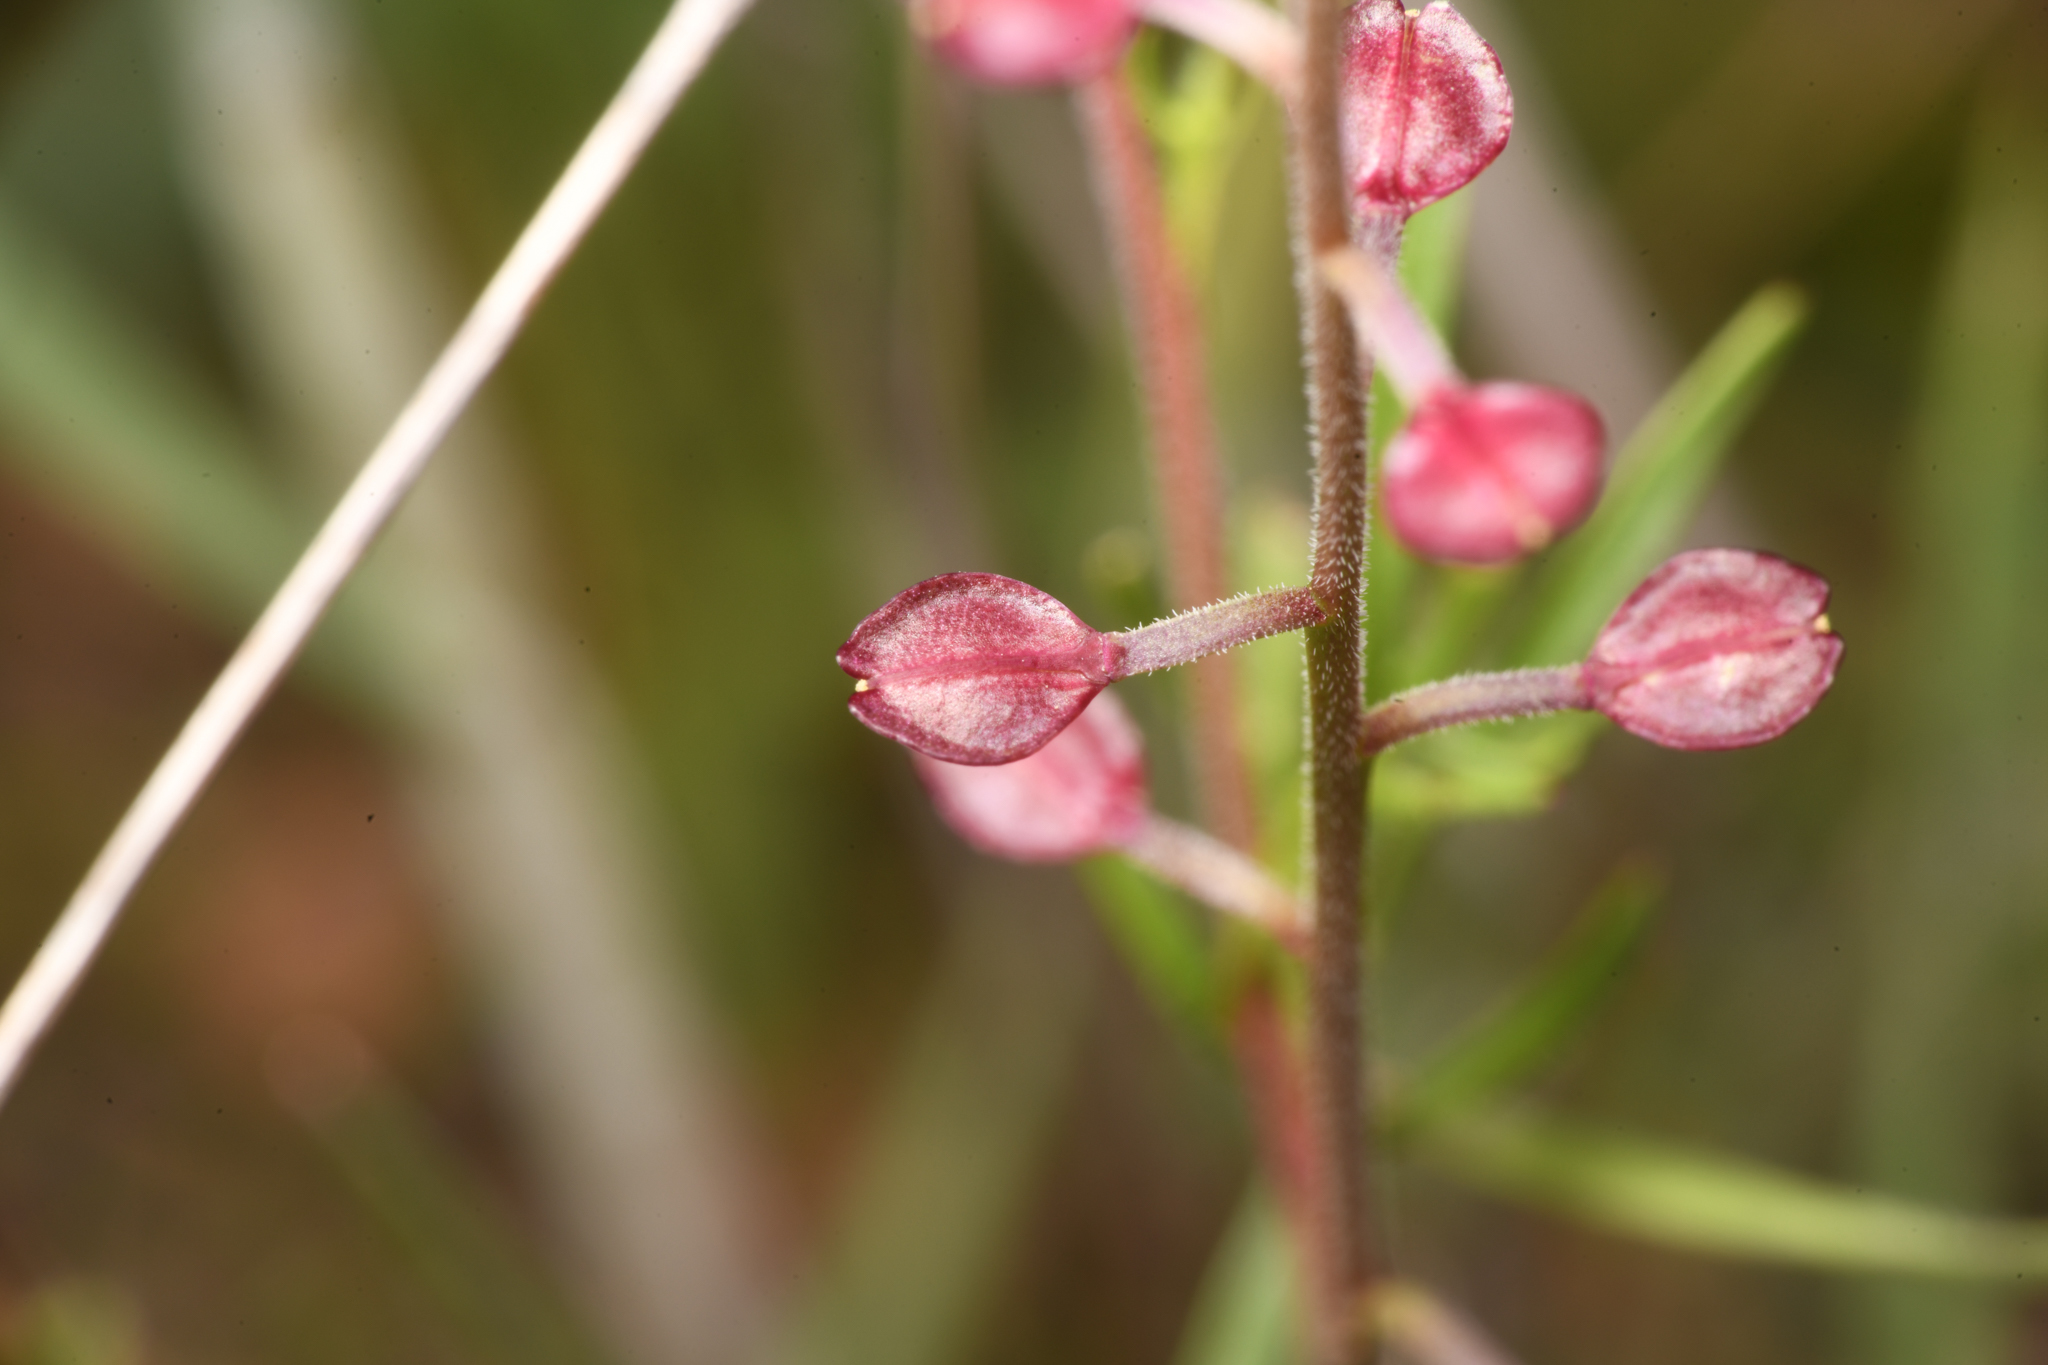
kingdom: Plantae
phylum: Tracheophyta
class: Magnoliopsida
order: Brassicales
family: Brassicaceae
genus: Lepidium
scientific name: Lepidium nitidum
